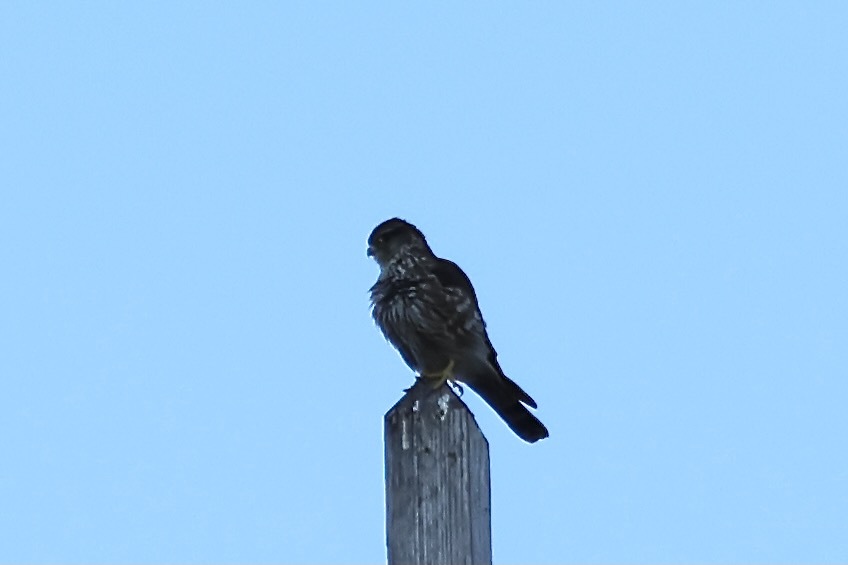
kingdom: Animalia
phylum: Chordata
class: Aves
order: Falconiformes
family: Falconidae
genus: Falco
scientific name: Falco columbarius
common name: Merlin
